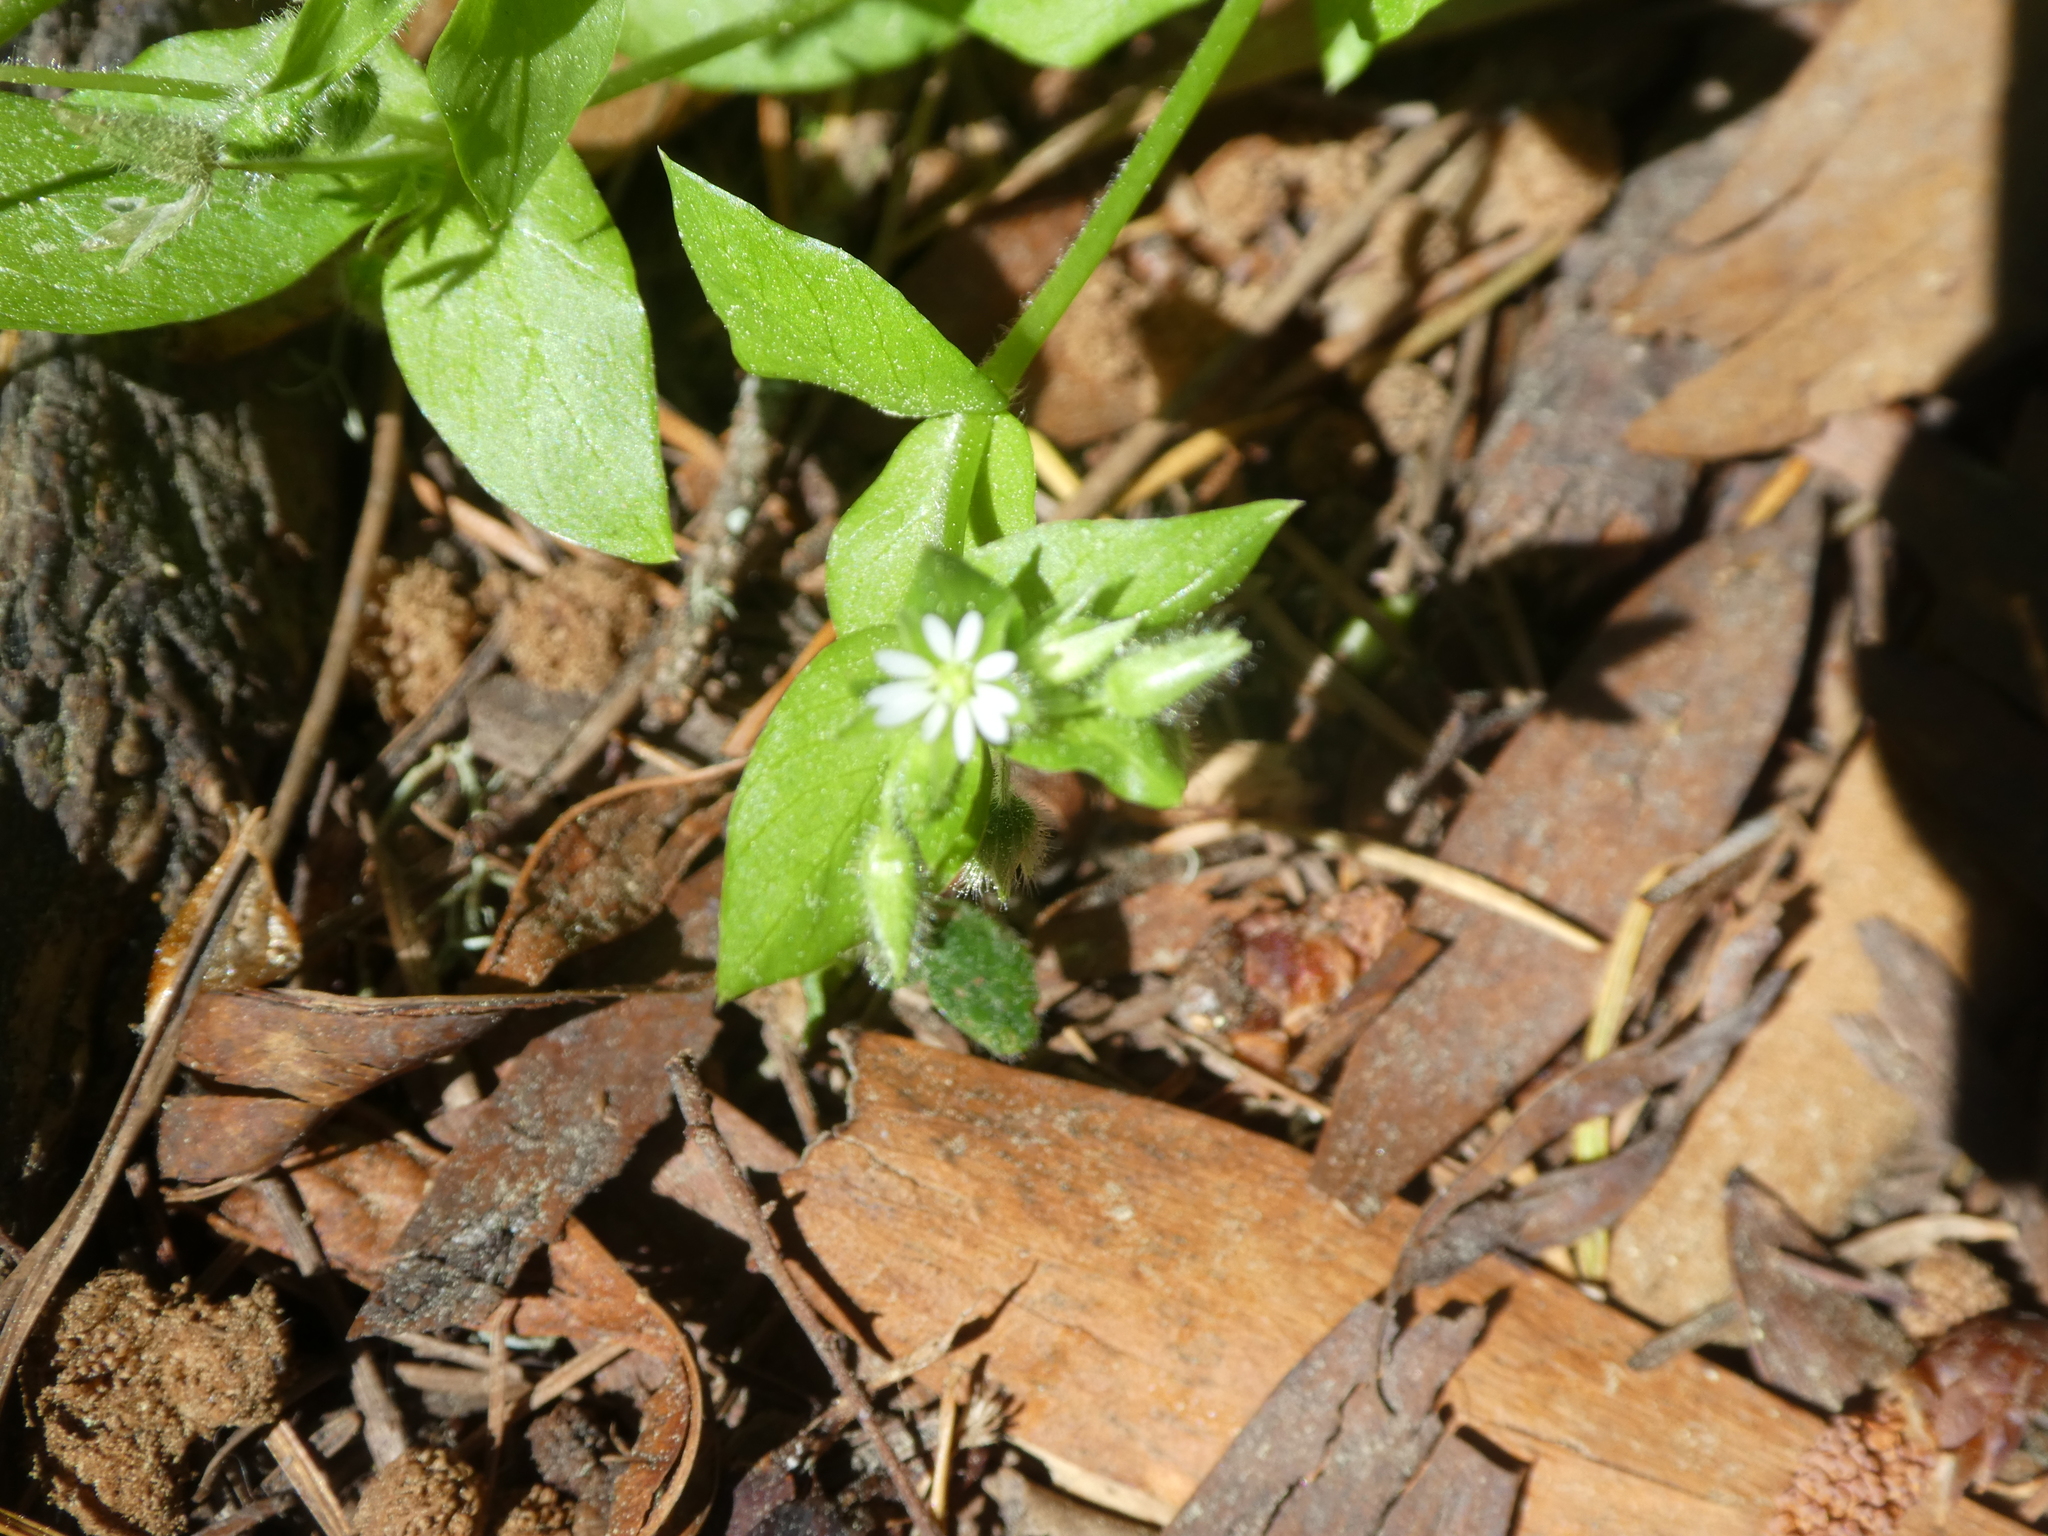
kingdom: Plantae
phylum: Tracheophyta
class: Magnoliopsida
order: Caryophyllales
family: Caryophyllaceae
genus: Stellaria
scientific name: Stellaria media
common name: Common chickweed
